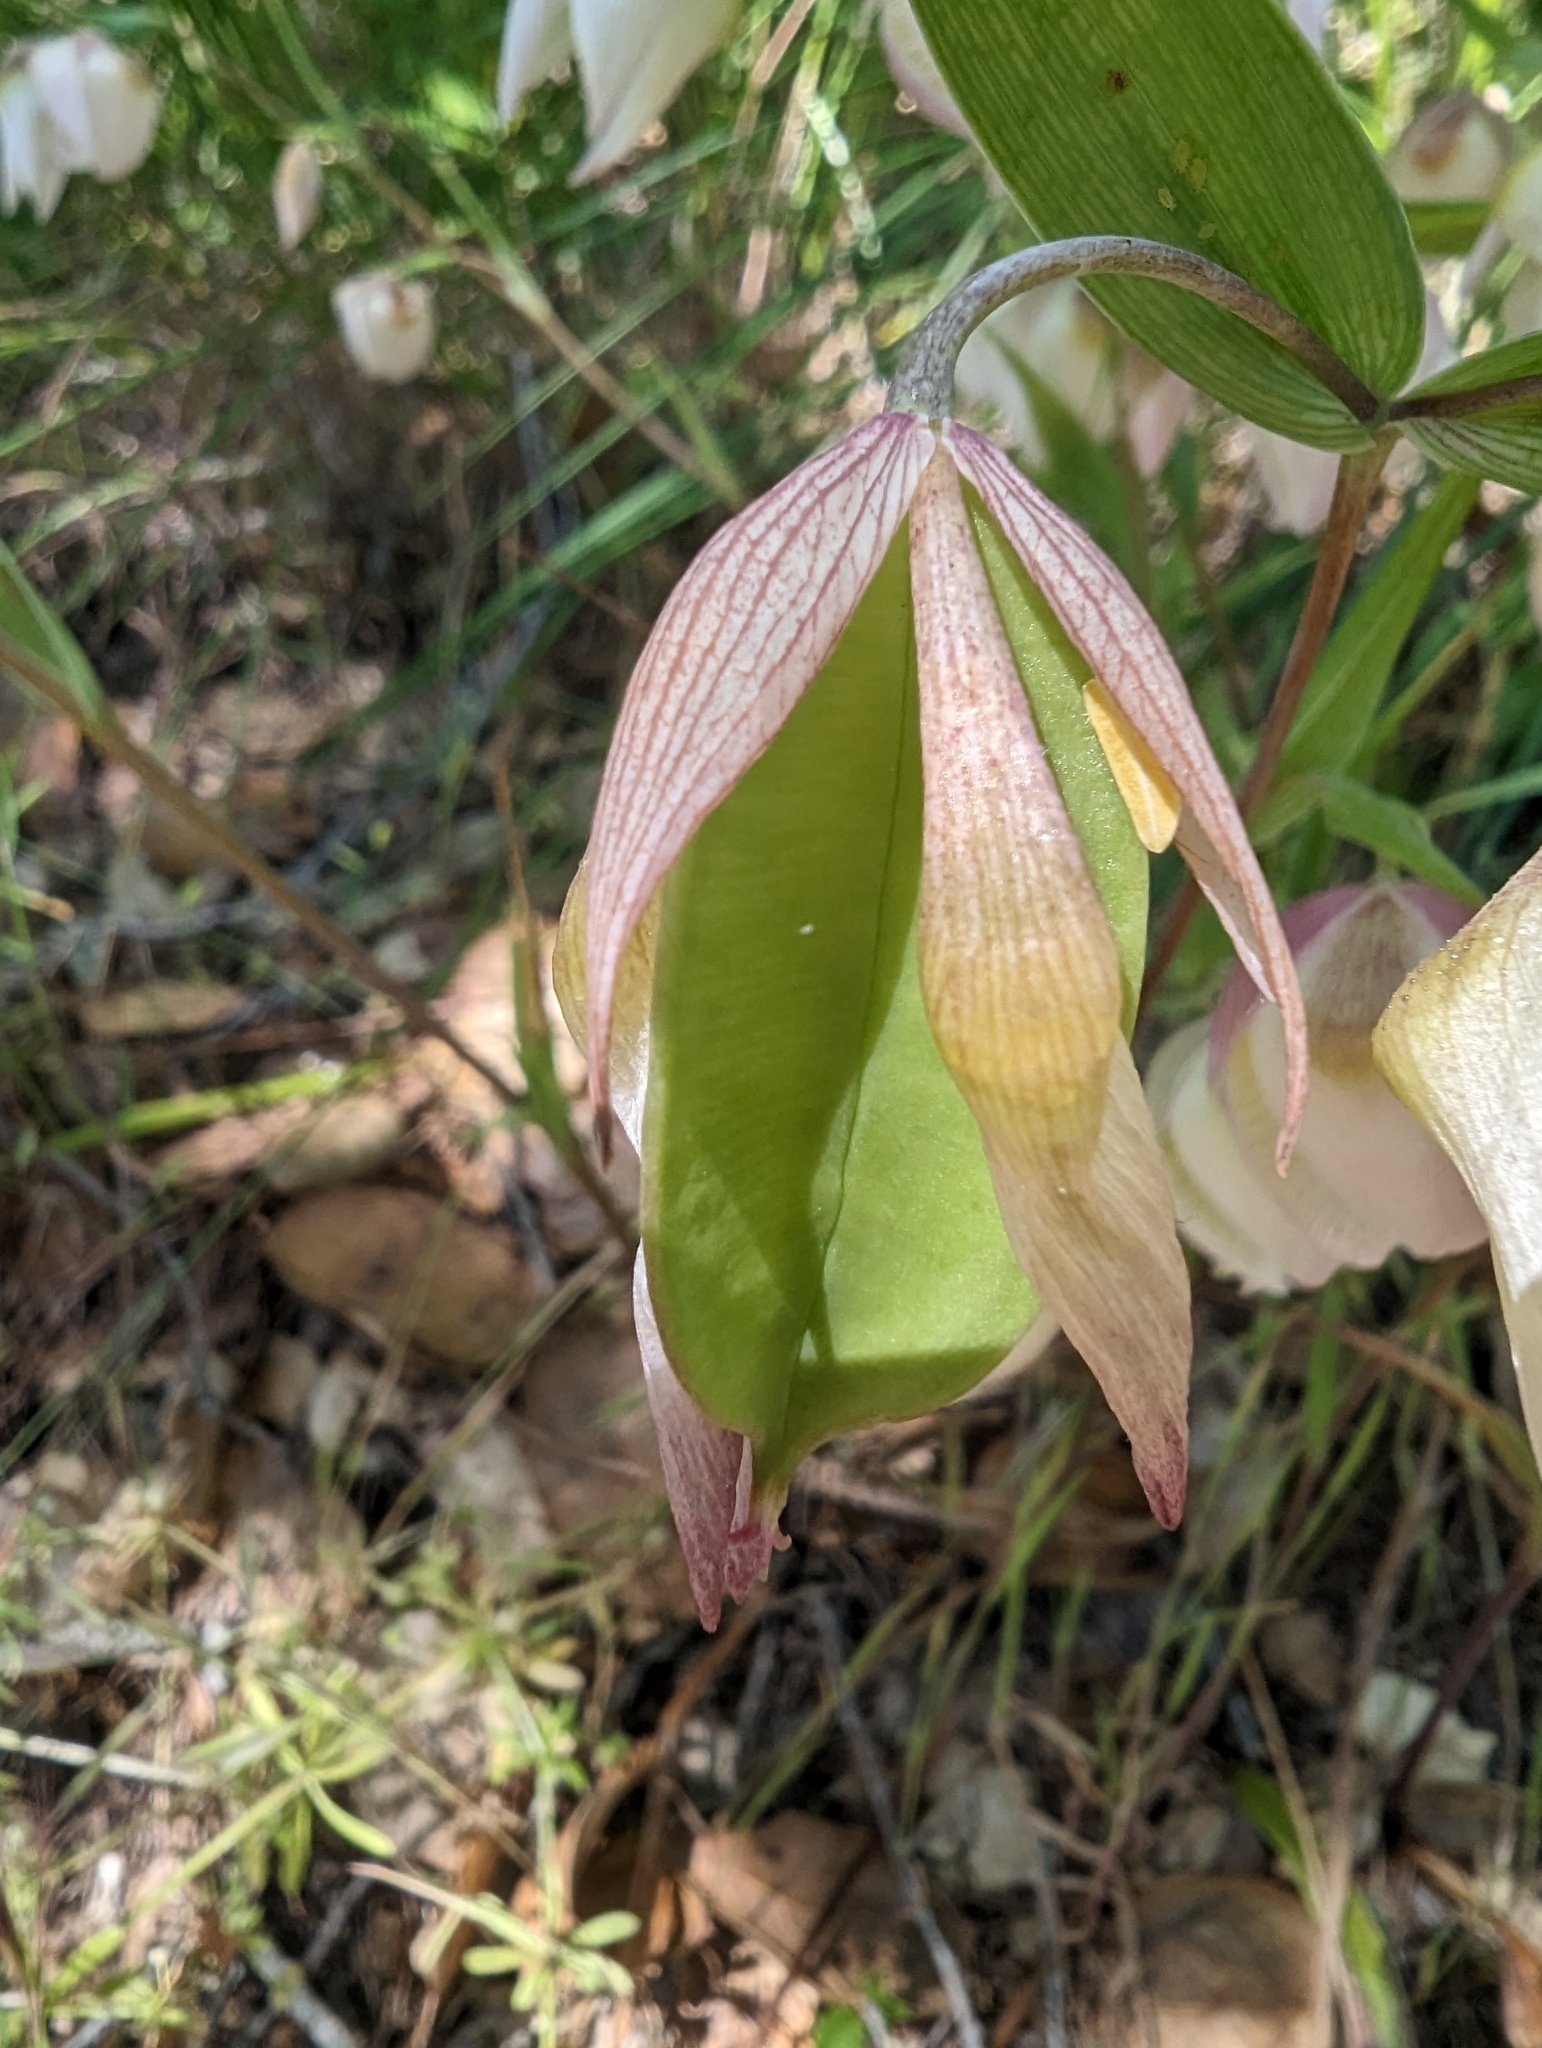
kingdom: Plantae
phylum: Tracheophyta
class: Liliopsida
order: Liliales
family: Liliaceae
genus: Calochortus
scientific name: Calochortus albus
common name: Fairy-lantern
